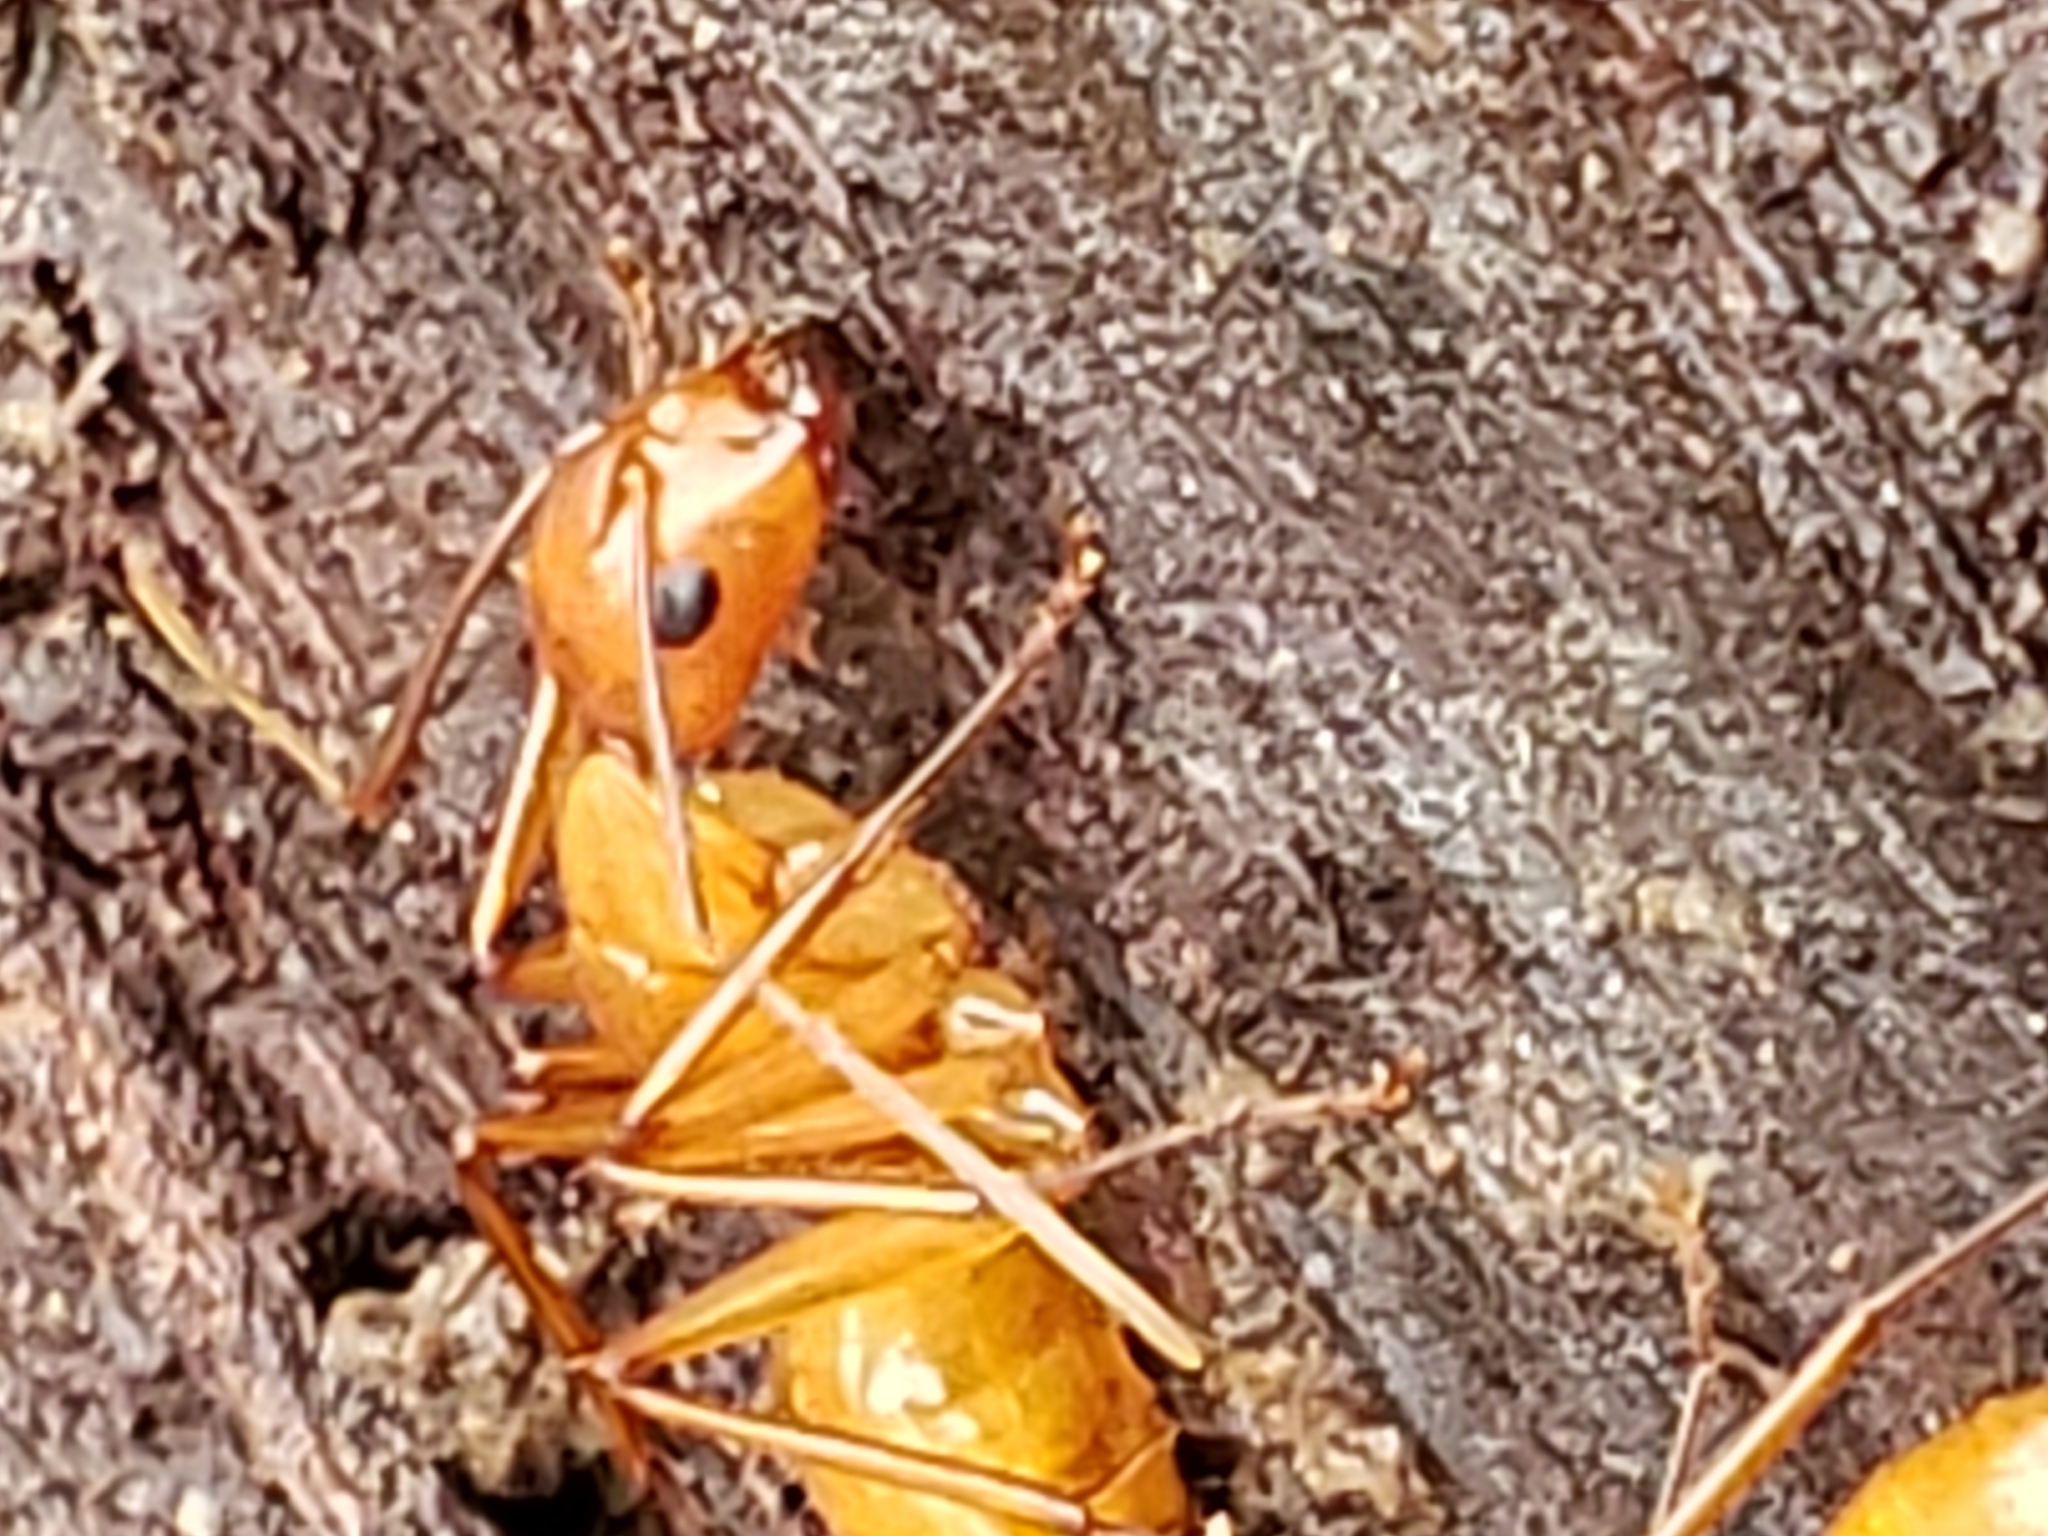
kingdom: Animalia
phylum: Arthropoda
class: Insecta
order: Hymenoptera
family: Formicidae
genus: Camponotus
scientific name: Camponotus castaneus
